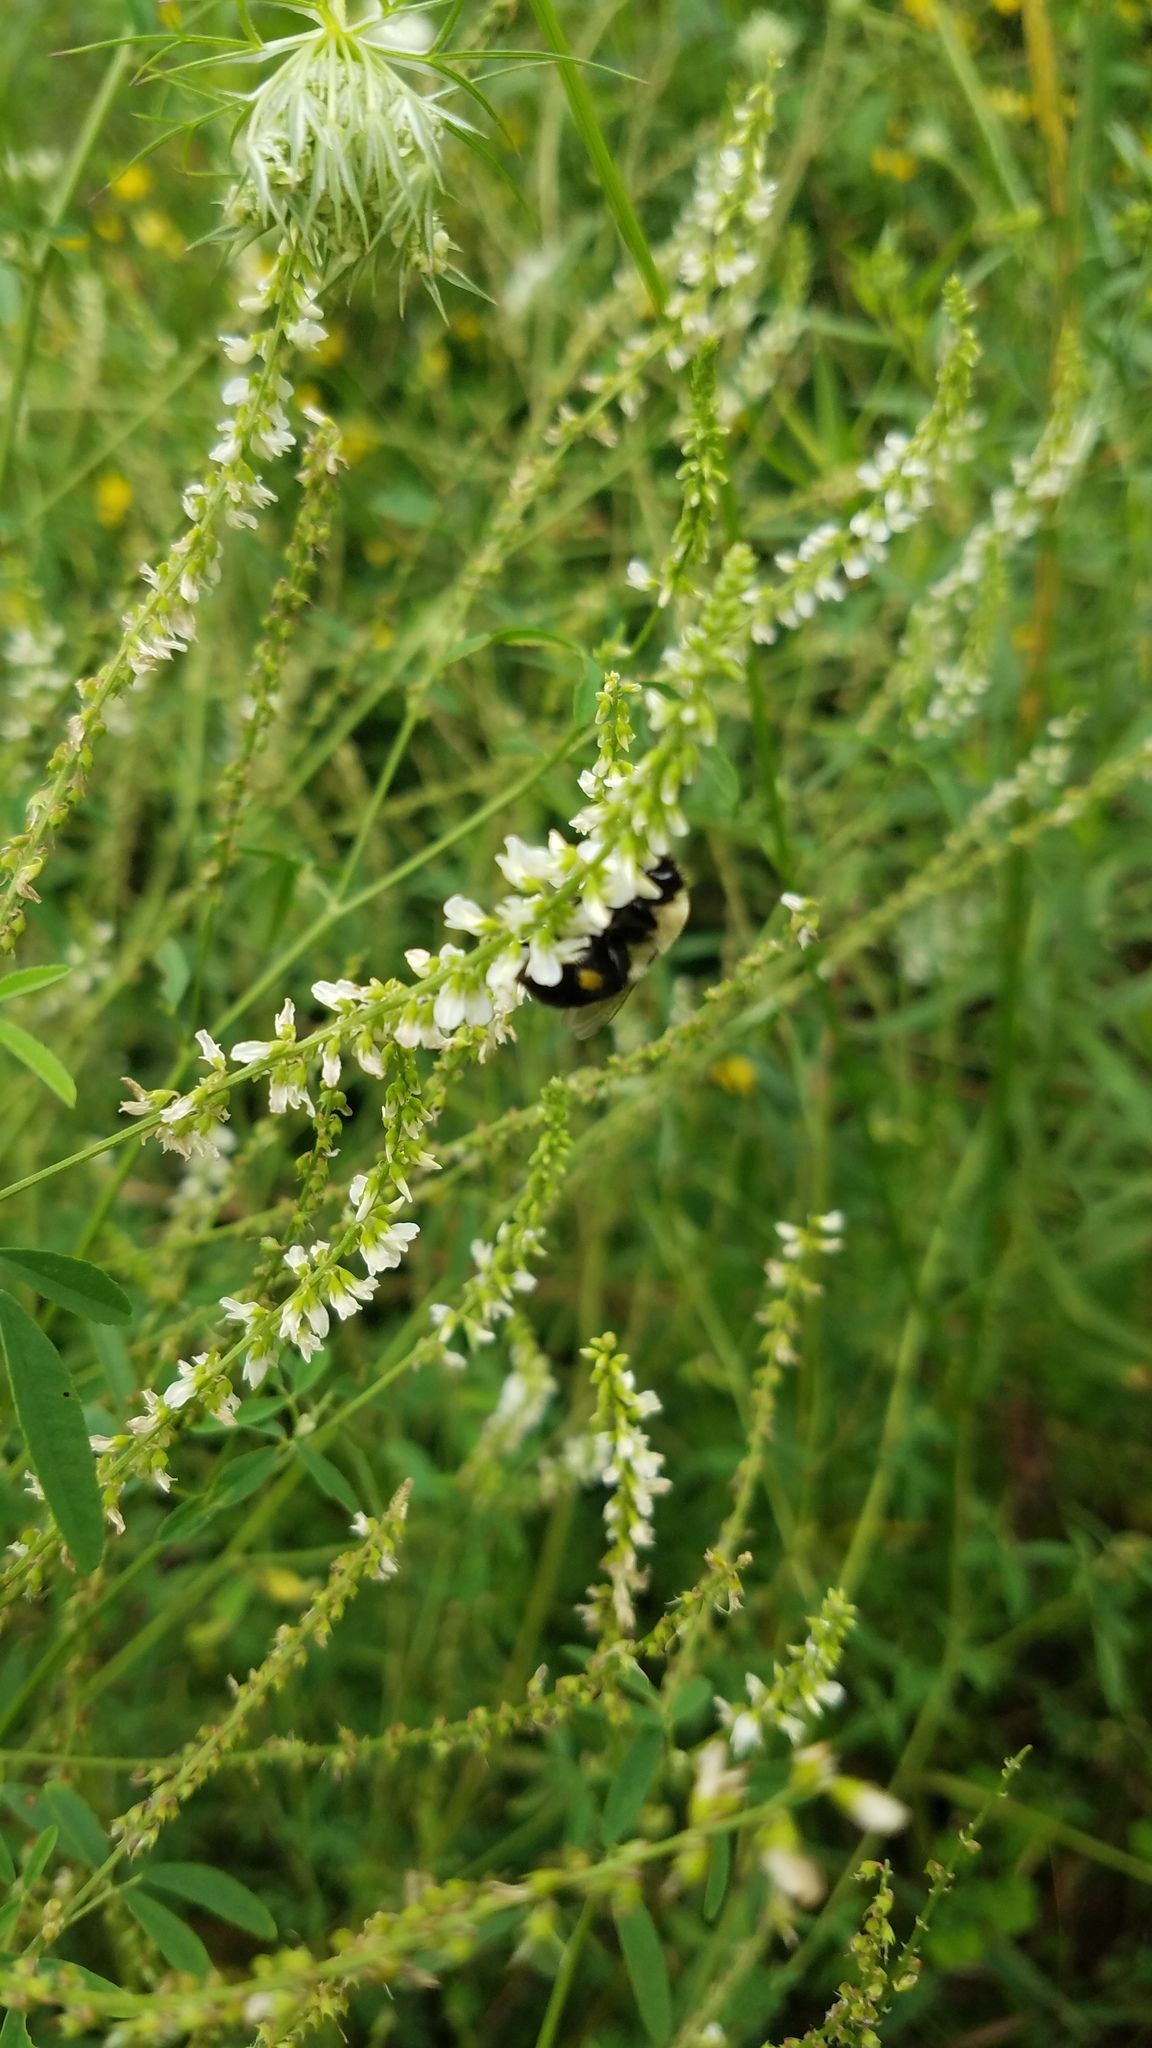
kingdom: Animalia
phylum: Arthropoda
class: Insecta
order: Hymenoptera
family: Apidae
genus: Bombus
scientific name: Bombus impatiens
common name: Common eastern bumble bee
